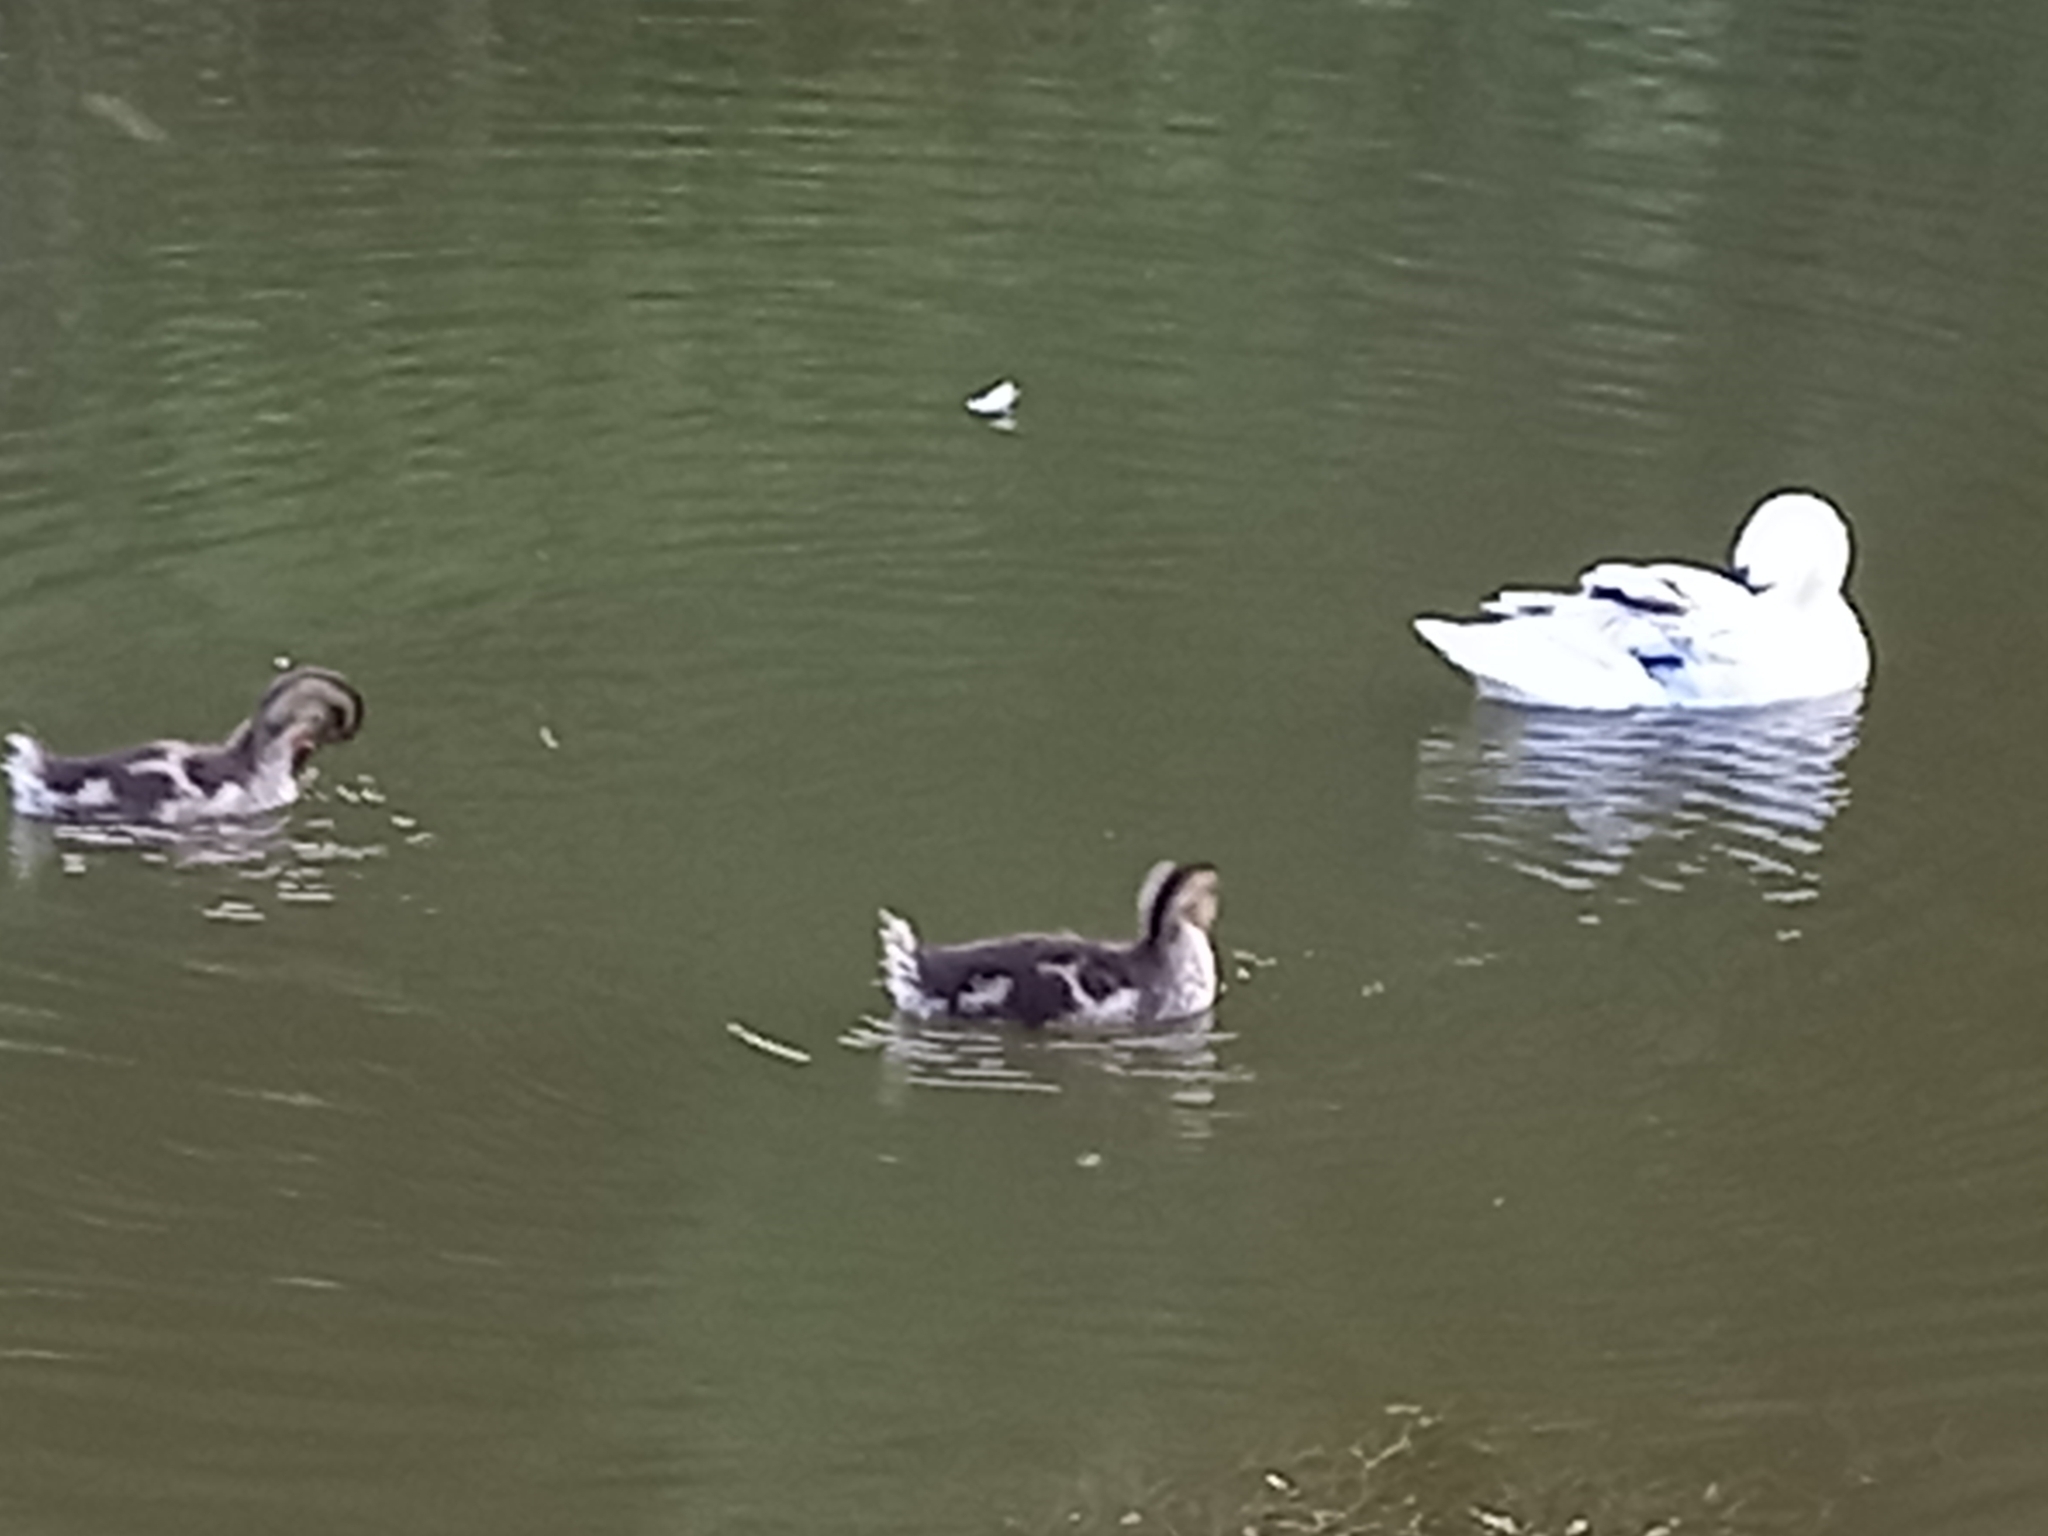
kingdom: Animalia
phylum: Chordata
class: Aves
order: Anseriformes
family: Anatidae
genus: Anas
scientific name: Anas platyrhynchos
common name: Mallard
